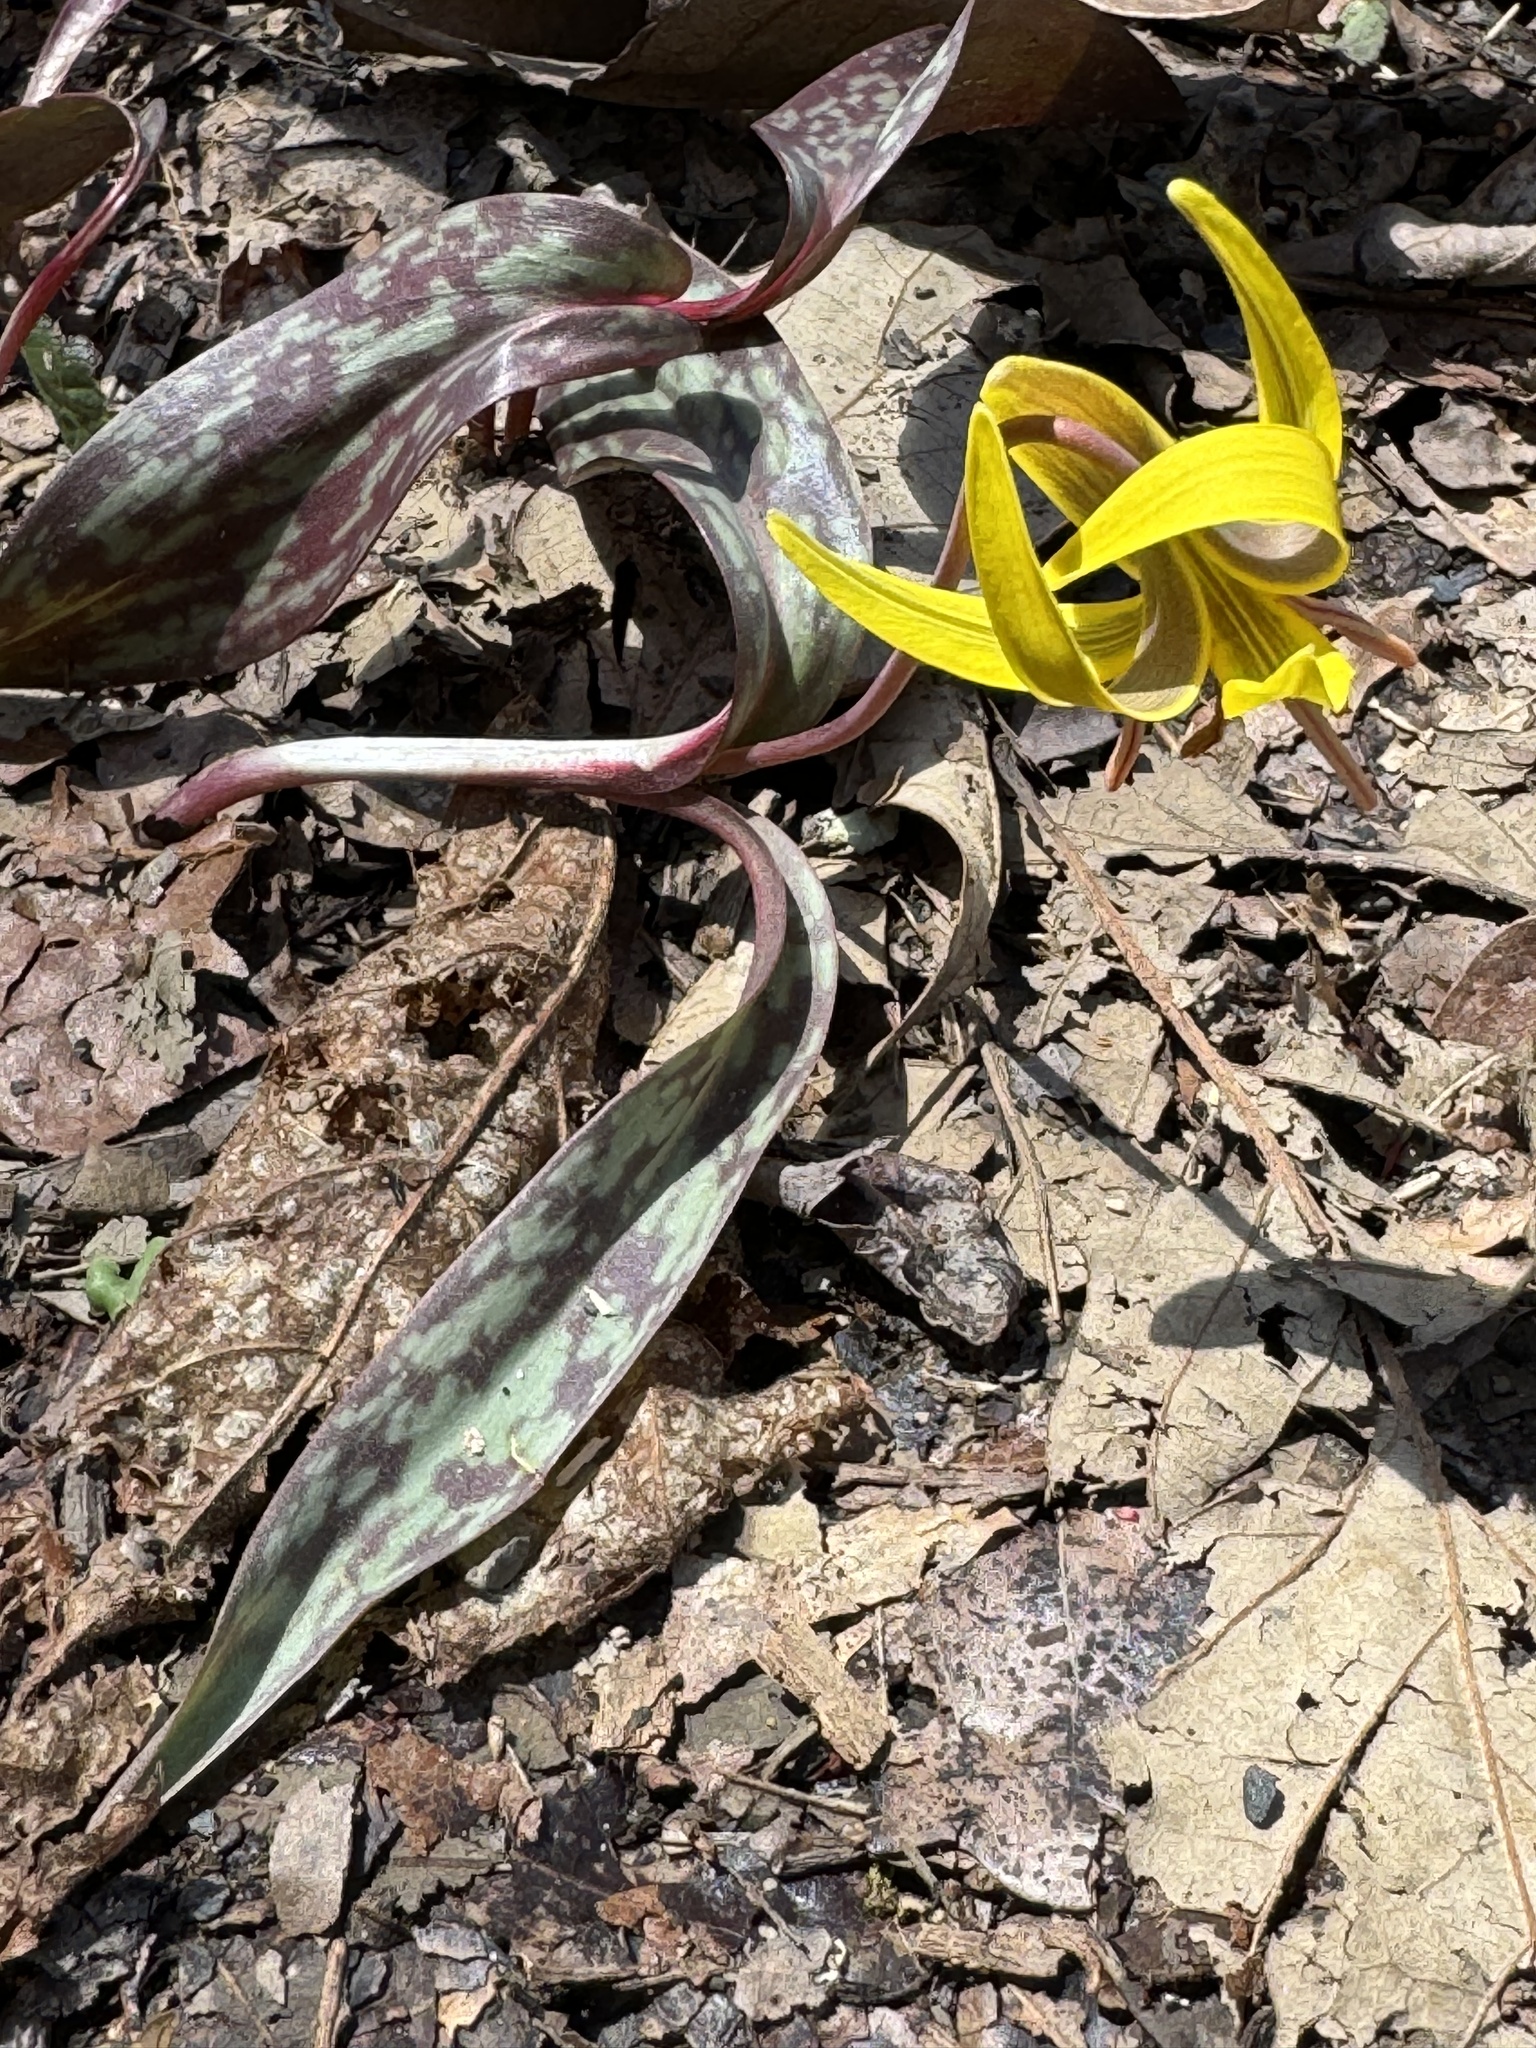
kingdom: Plantae
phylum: Tracheophyta
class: Liliopsida
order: Liliales
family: Liliaceae
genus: Erythronium
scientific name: Erythronium americanum
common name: Yellow adder's-tongue
